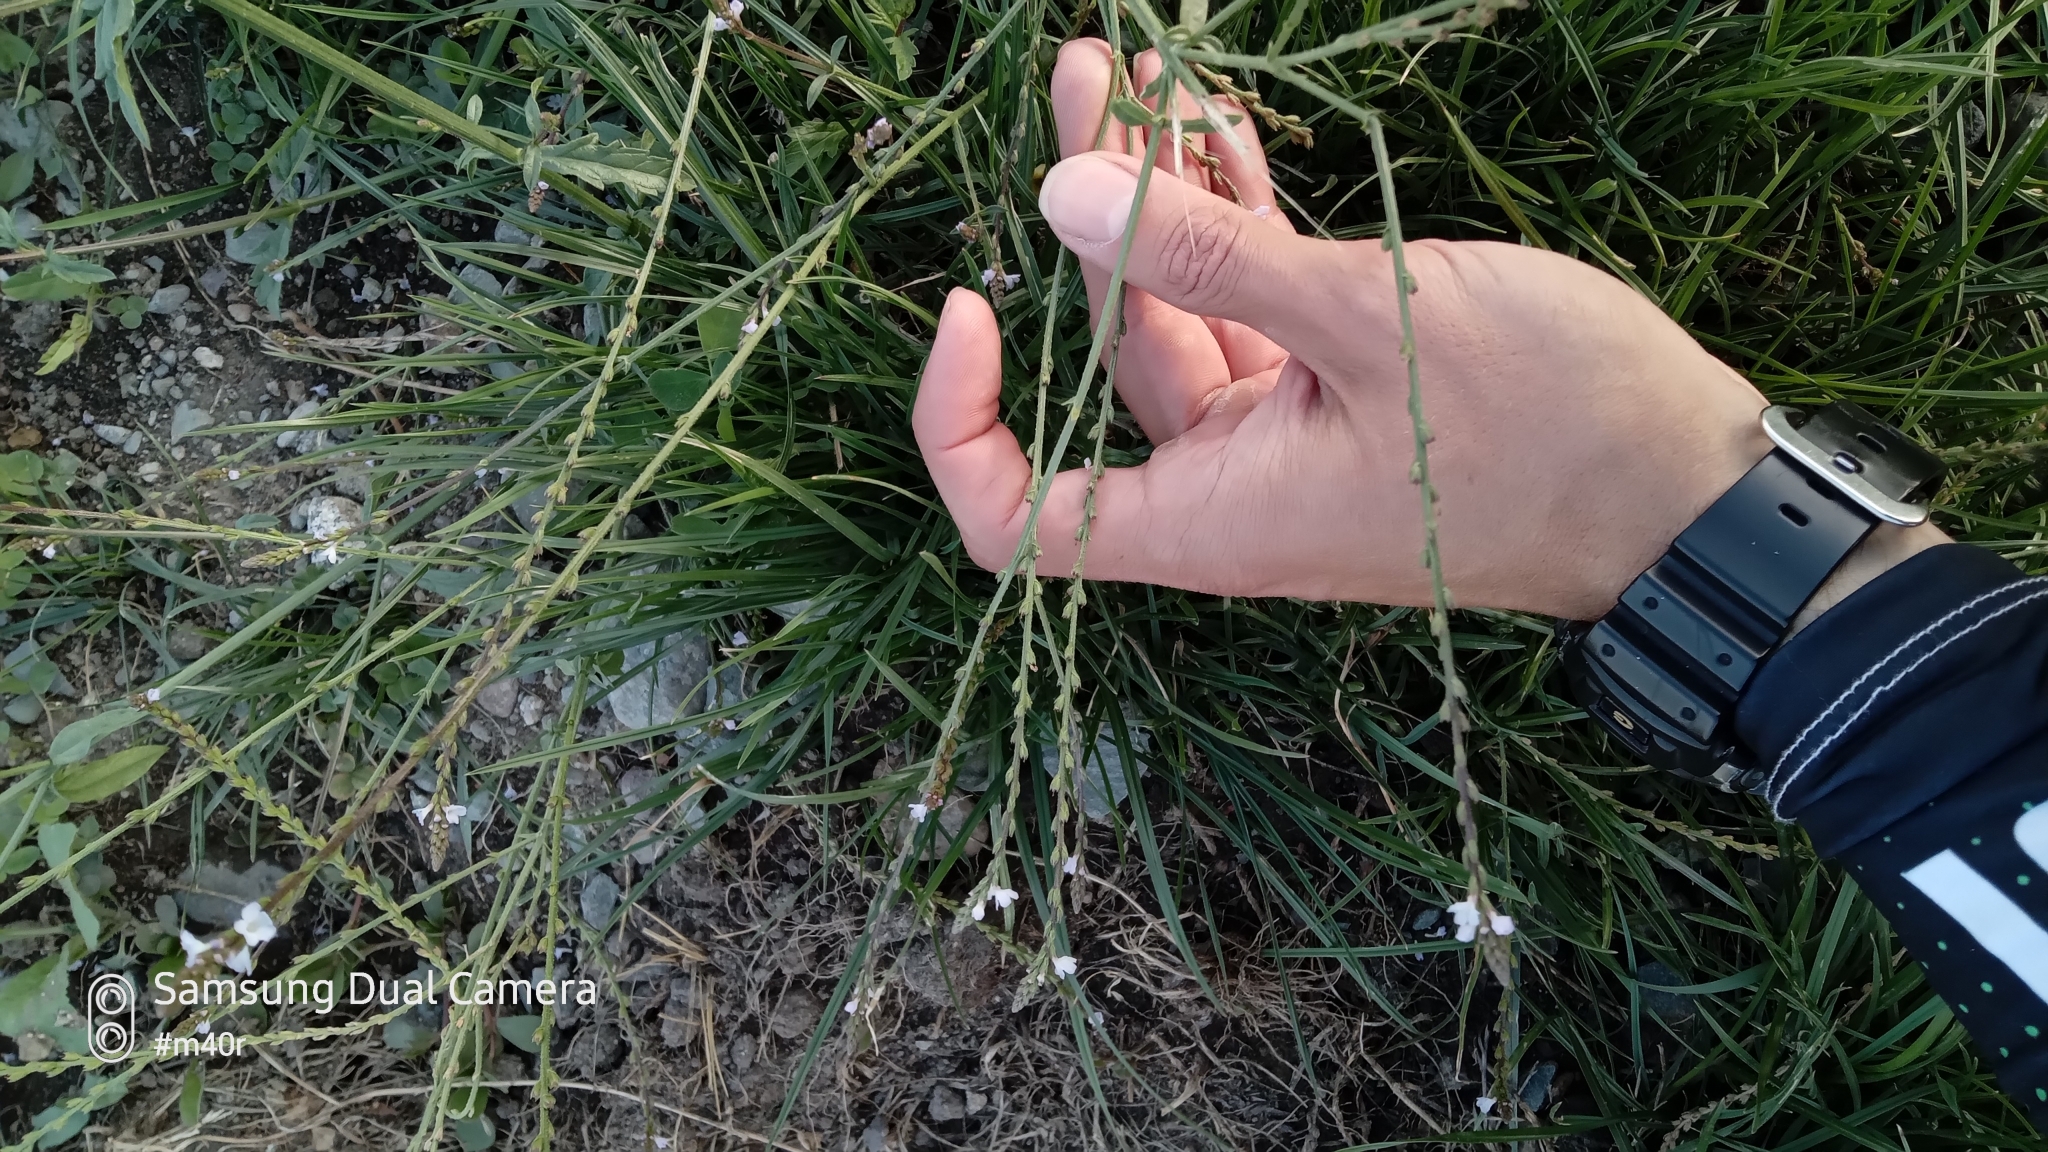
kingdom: Plantae
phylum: Tracheophyta
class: Magnoliopsida
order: Lamiales
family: Verbenaceae
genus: Verbena
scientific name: Verbena officinalis
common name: Vervain
